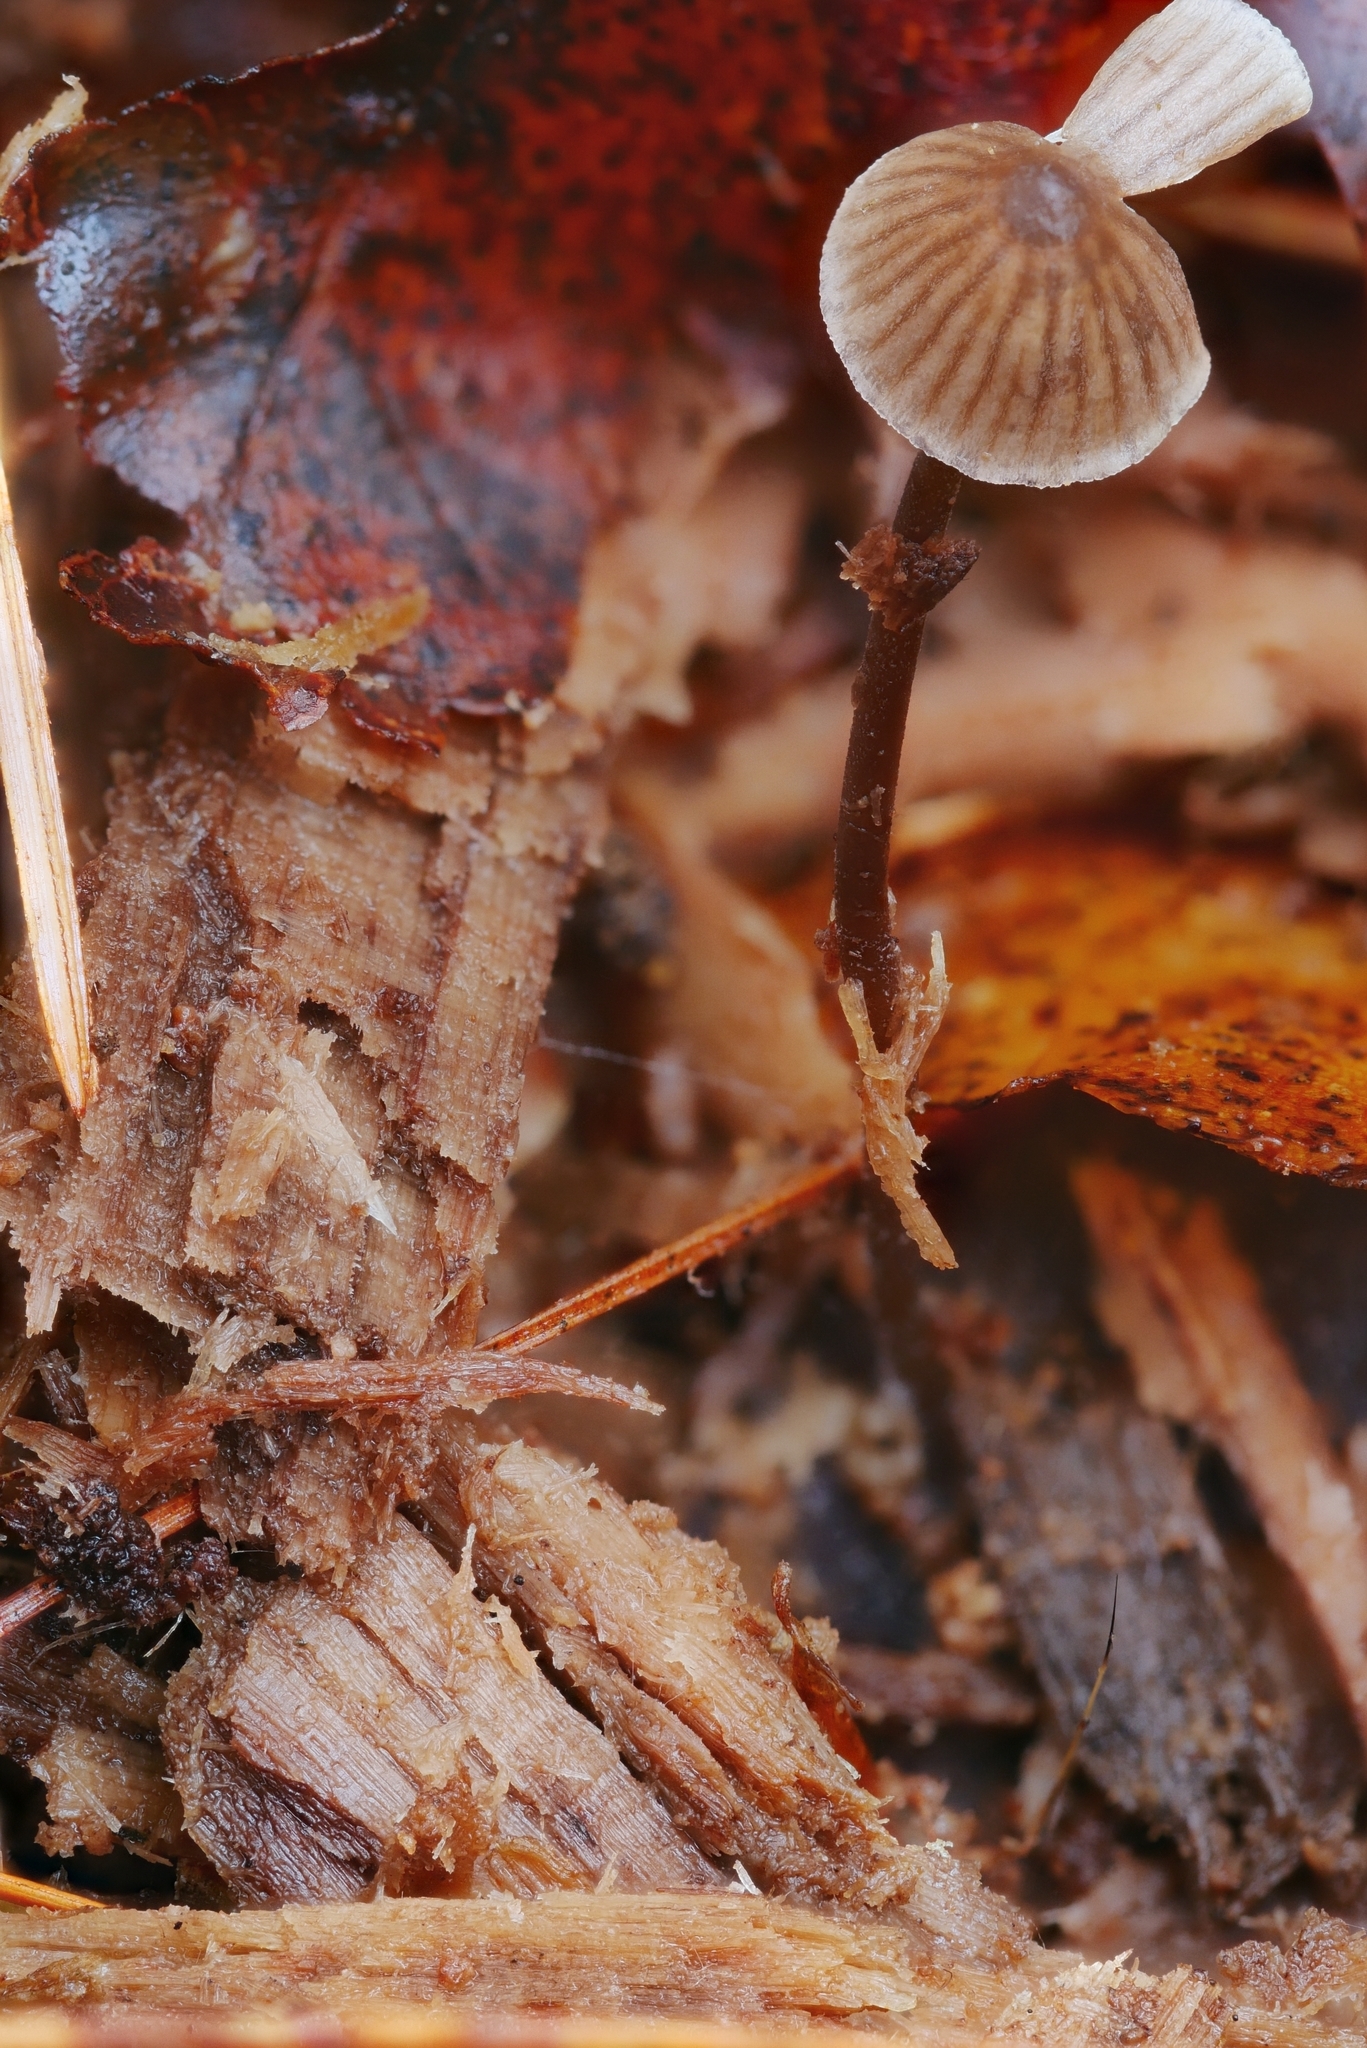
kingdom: Fungi
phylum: Basidiomycota
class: Agaricomycetes
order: Agaricales
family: Mycenaceae
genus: Mycena
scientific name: Mycena leptocephala
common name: Nitrous bonnet
